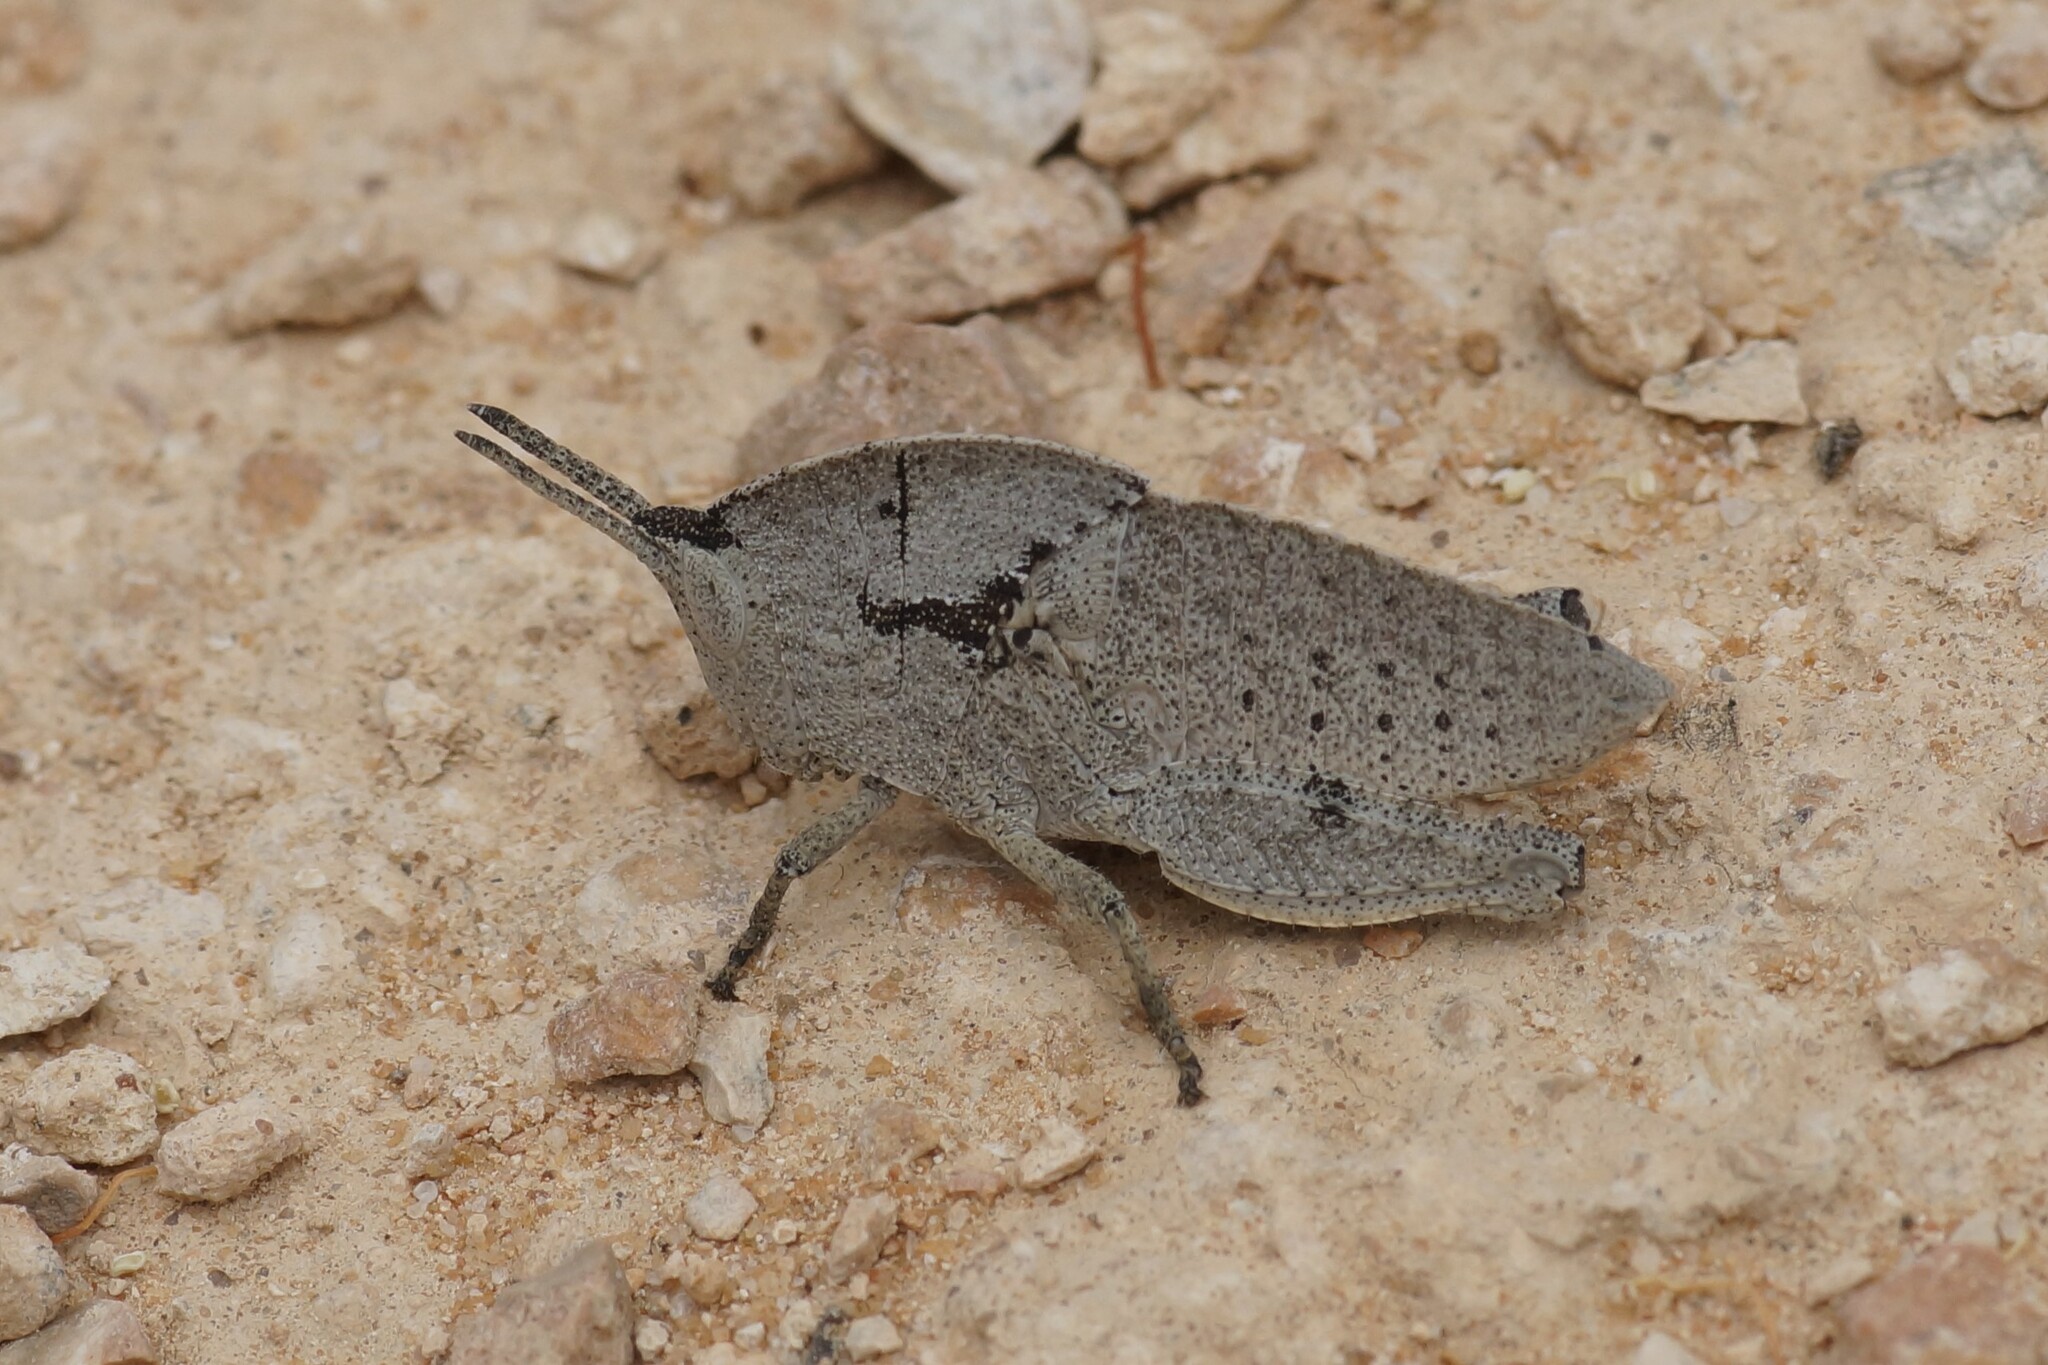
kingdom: Animalia
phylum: Arthropoda
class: Insecta
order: Orthoptera
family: Acrididae
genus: Goniaea
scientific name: Goniaea australasiae
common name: Gumleaf grasshopper
